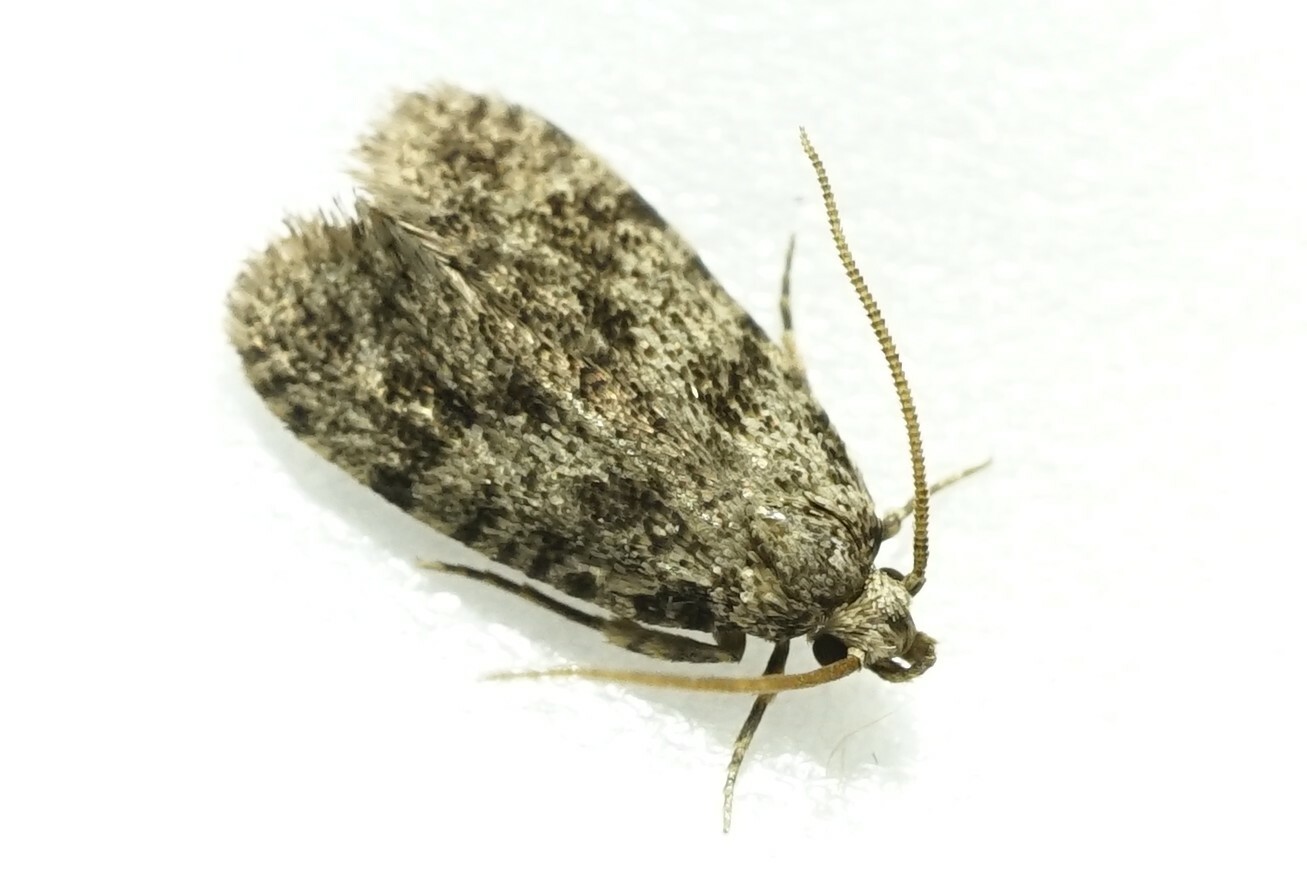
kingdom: Animalia
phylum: Arthropoda
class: Insecta
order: Lepidoptera
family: Tineidae
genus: Ippa
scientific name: Ippa conspersa
